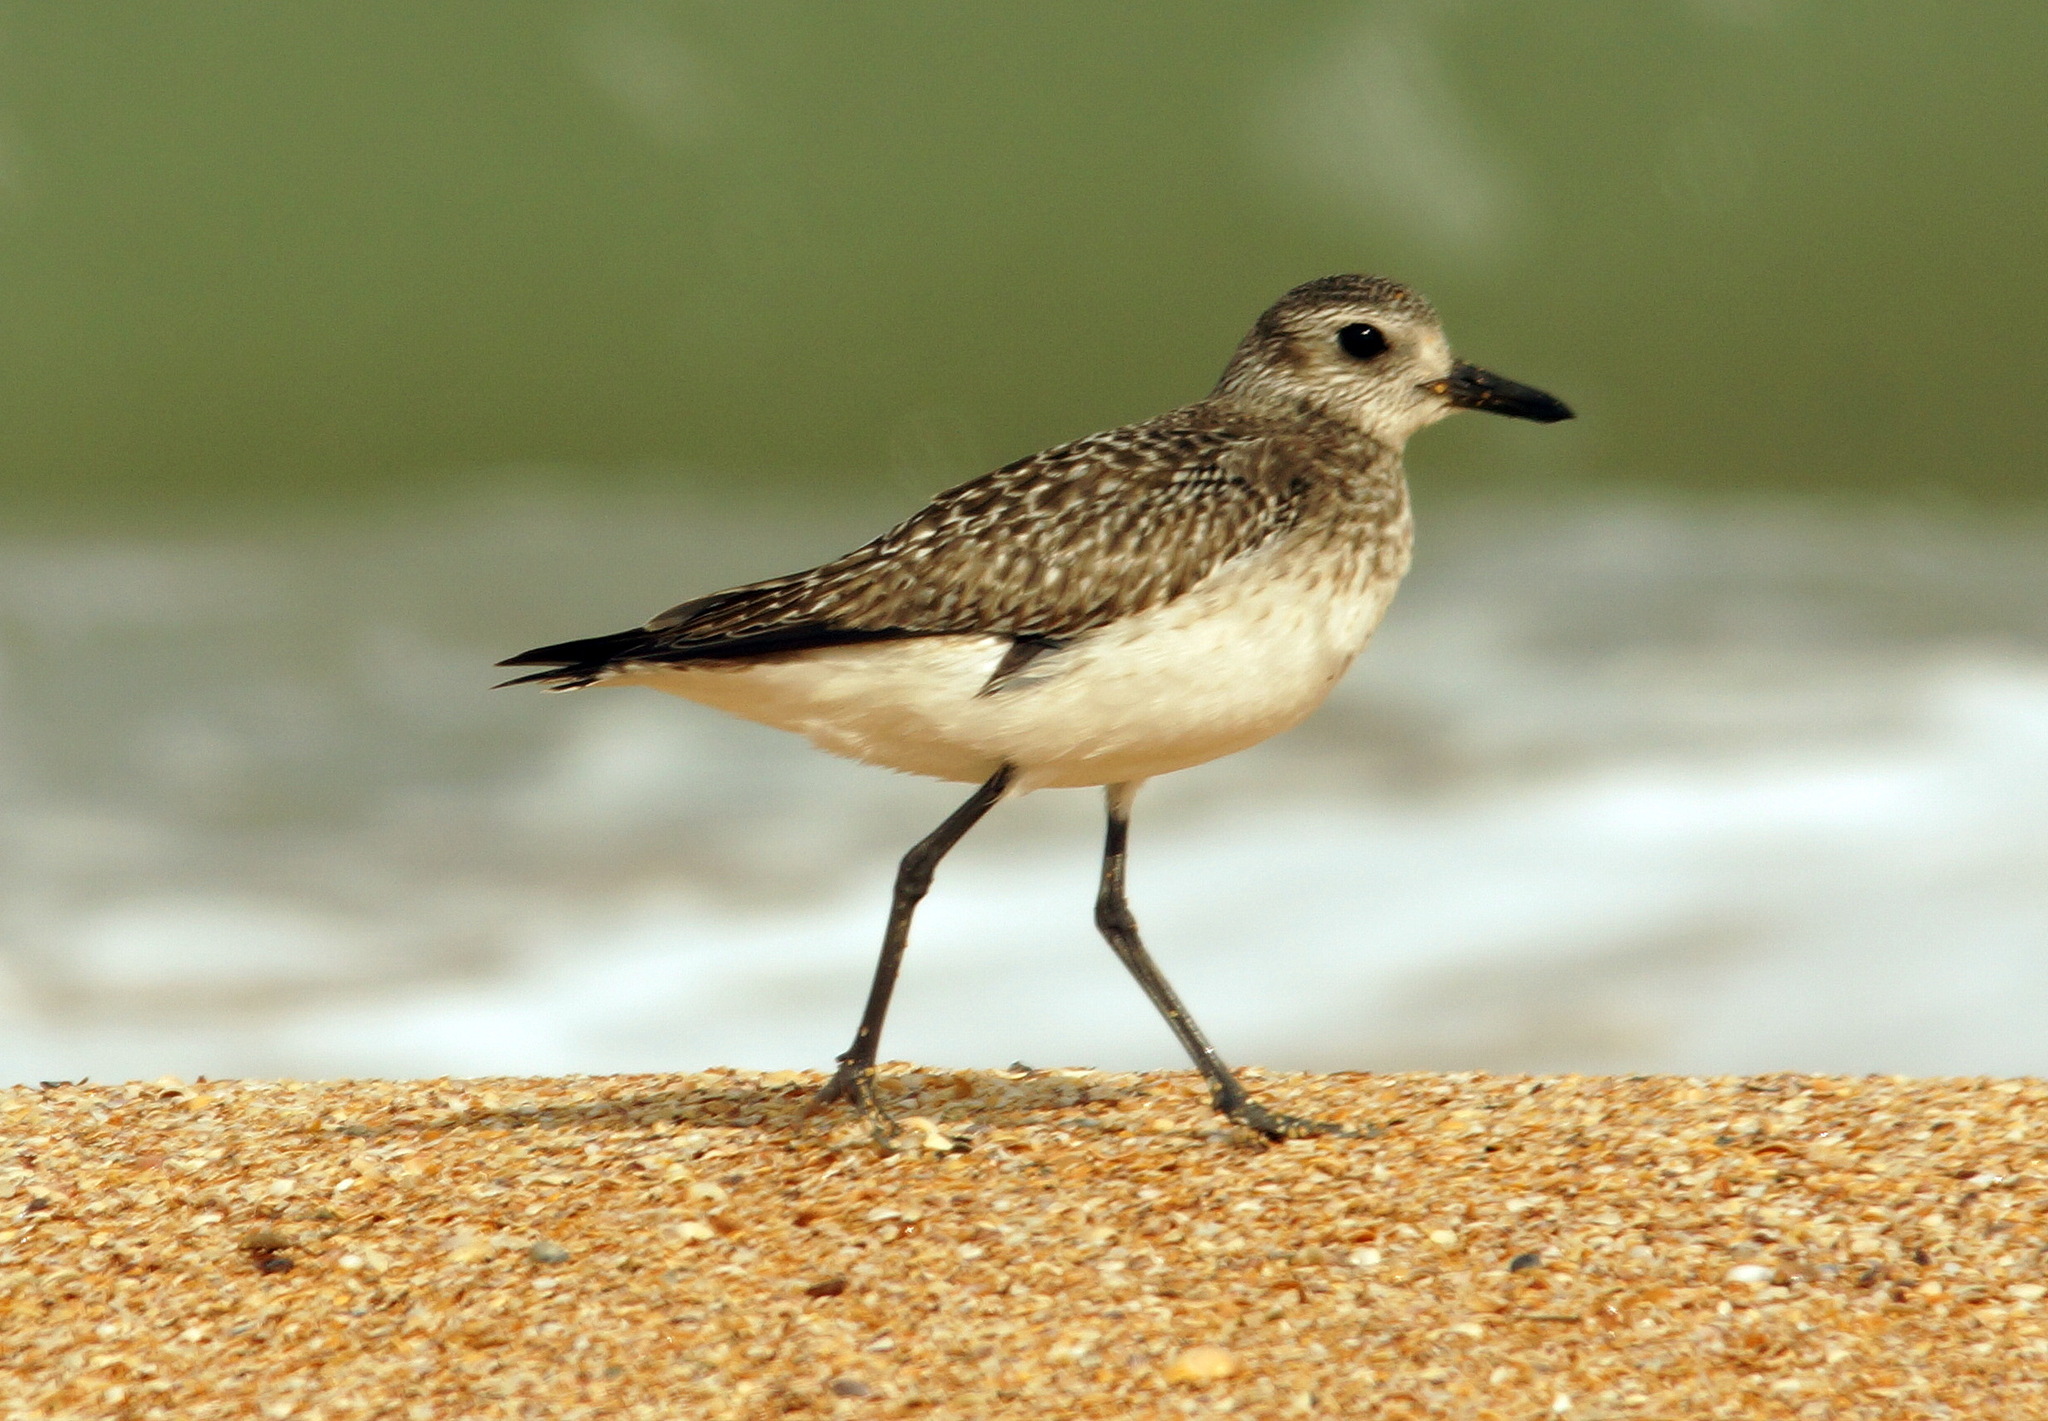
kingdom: Animalia
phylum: Chordata
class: Aves
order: Charadriiformes
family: Charadriidae
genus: Pluvialis
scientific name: Pluvialis squatarola
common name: Grey plover
